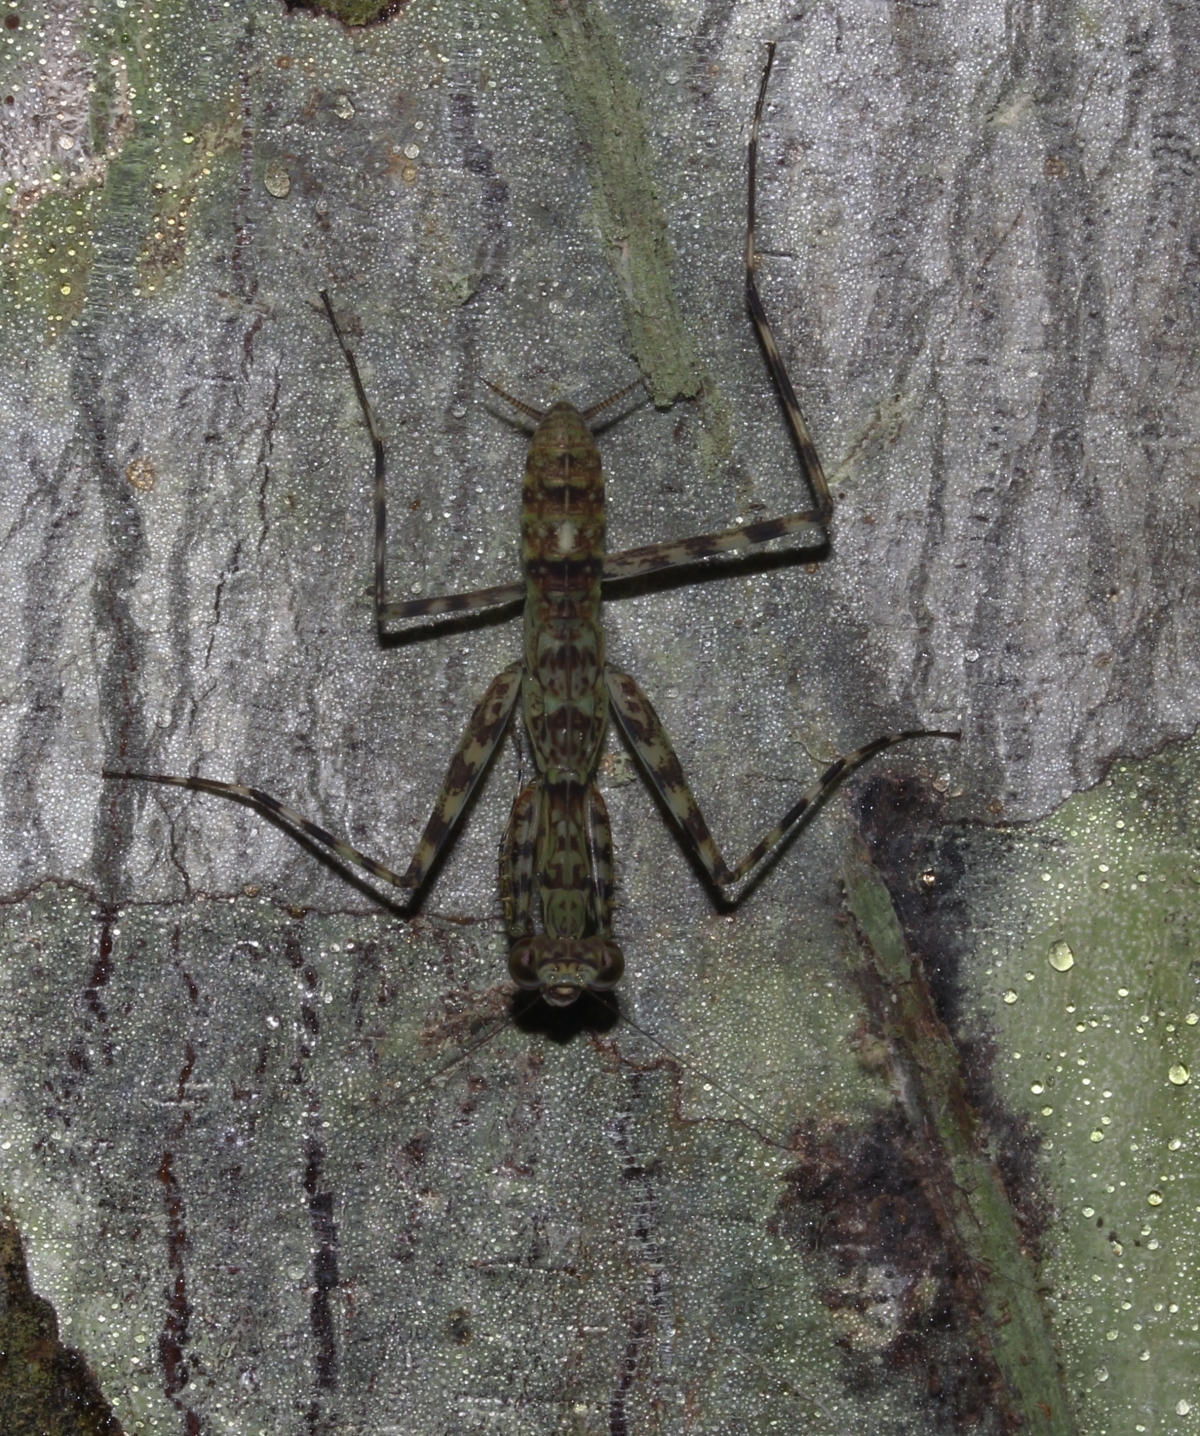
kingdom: Animalia
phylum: Arthropoda
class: Insecta
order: Mantodea
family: Liturgusidae
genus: Liturgusa
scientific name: Liturgusa
